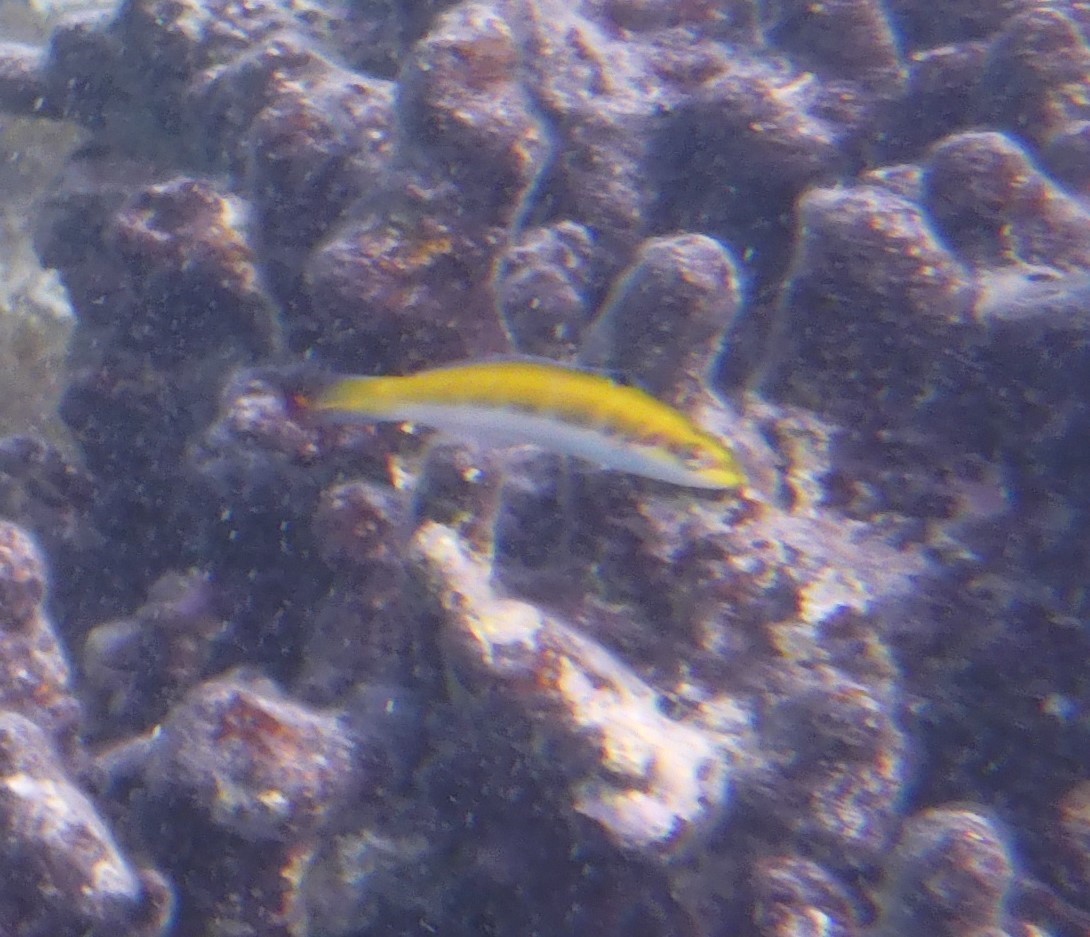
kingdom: Animalia
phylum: Chordata
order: Perciformes
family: Labridae
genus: Thalassoma
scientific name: Thalassoma bifasciatum
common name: Bluehead wrasse
